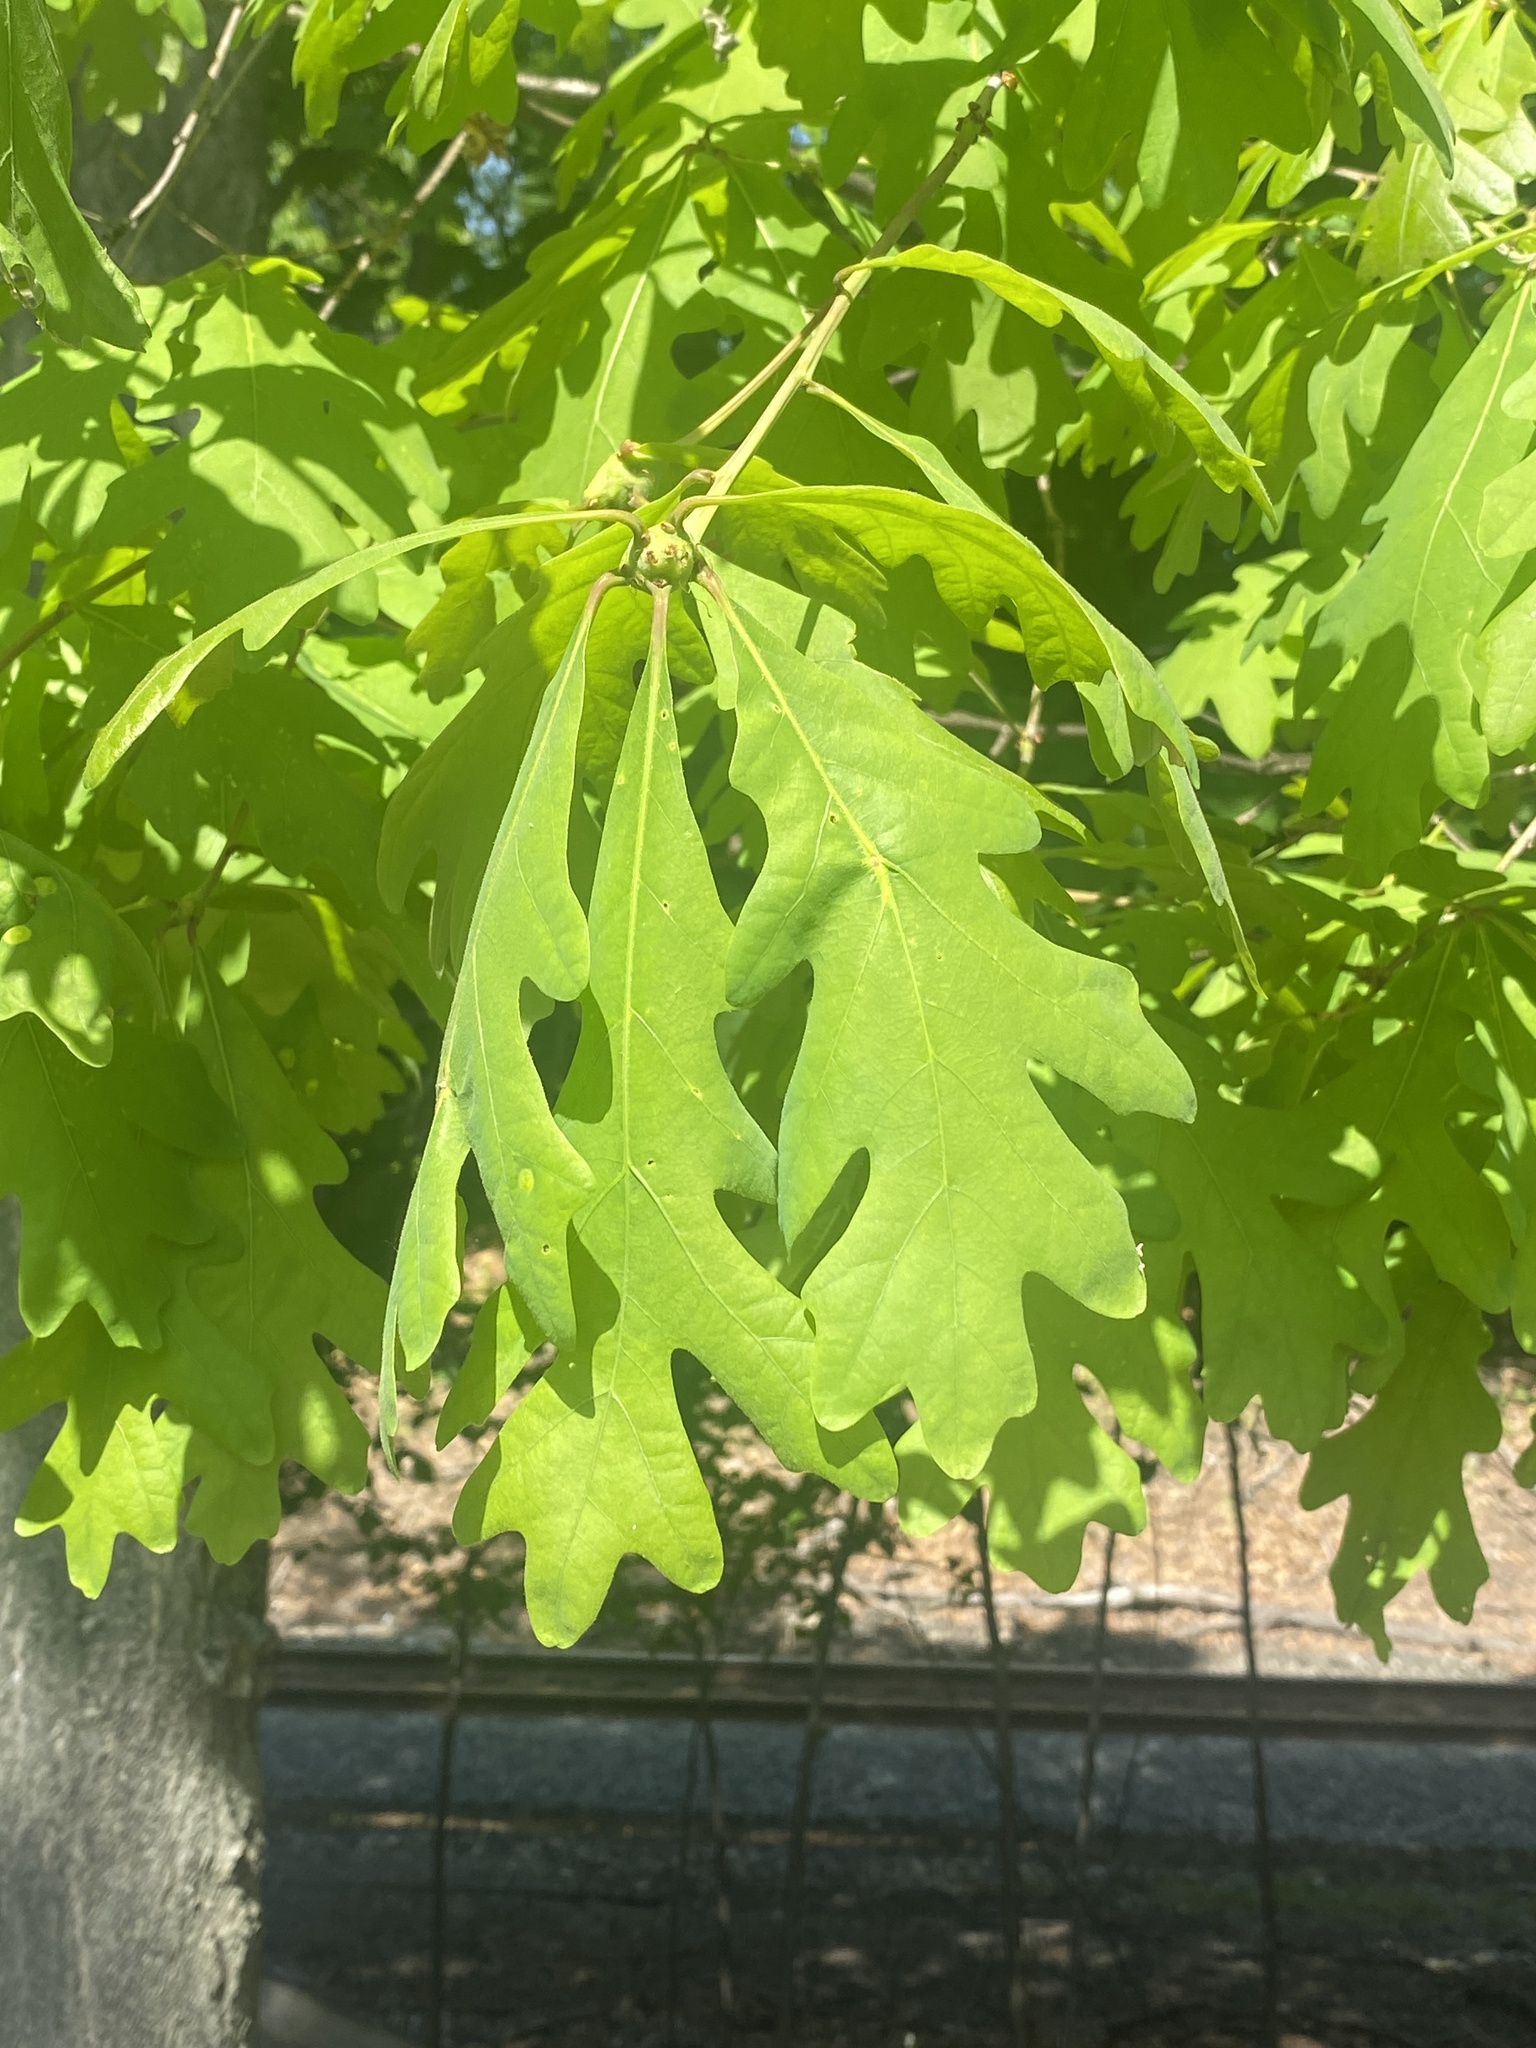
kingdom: Plantae
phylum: Tracheophyta
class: Magnoliopsida
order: Fagales
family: Fagaceae
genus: Quercus
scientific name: Quercus alba
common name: White oak
